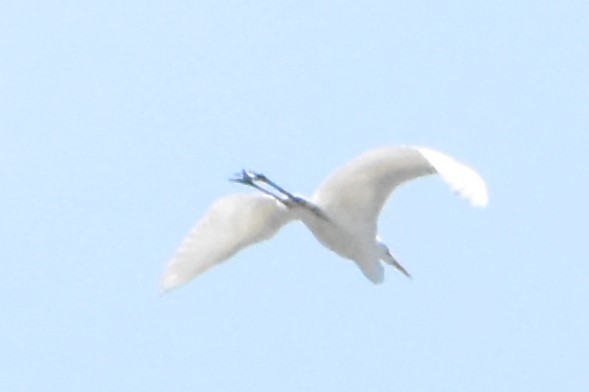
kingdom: Animalia
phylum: Chordata
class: Aves
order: Pelecaniformes
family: Ardeidae
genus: Ardea
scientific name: Ardea alba
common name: Great egret
